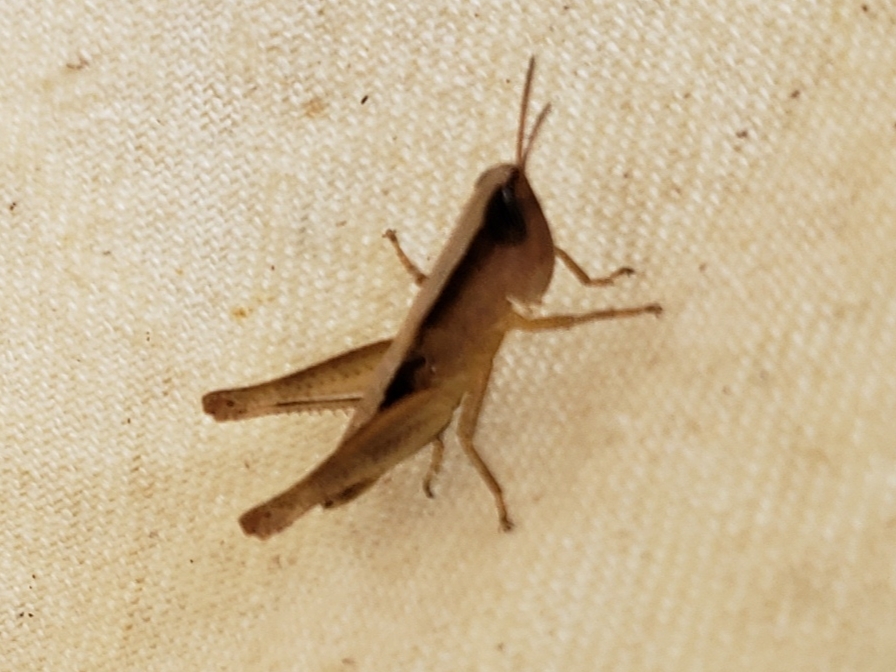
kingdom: Animalia
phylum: Arthropoda
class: Insecta
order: Orthoptera
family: Acrididae
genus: Dichromorpha
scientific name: Dichromorpha elegans
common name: Elegant grasshopper
